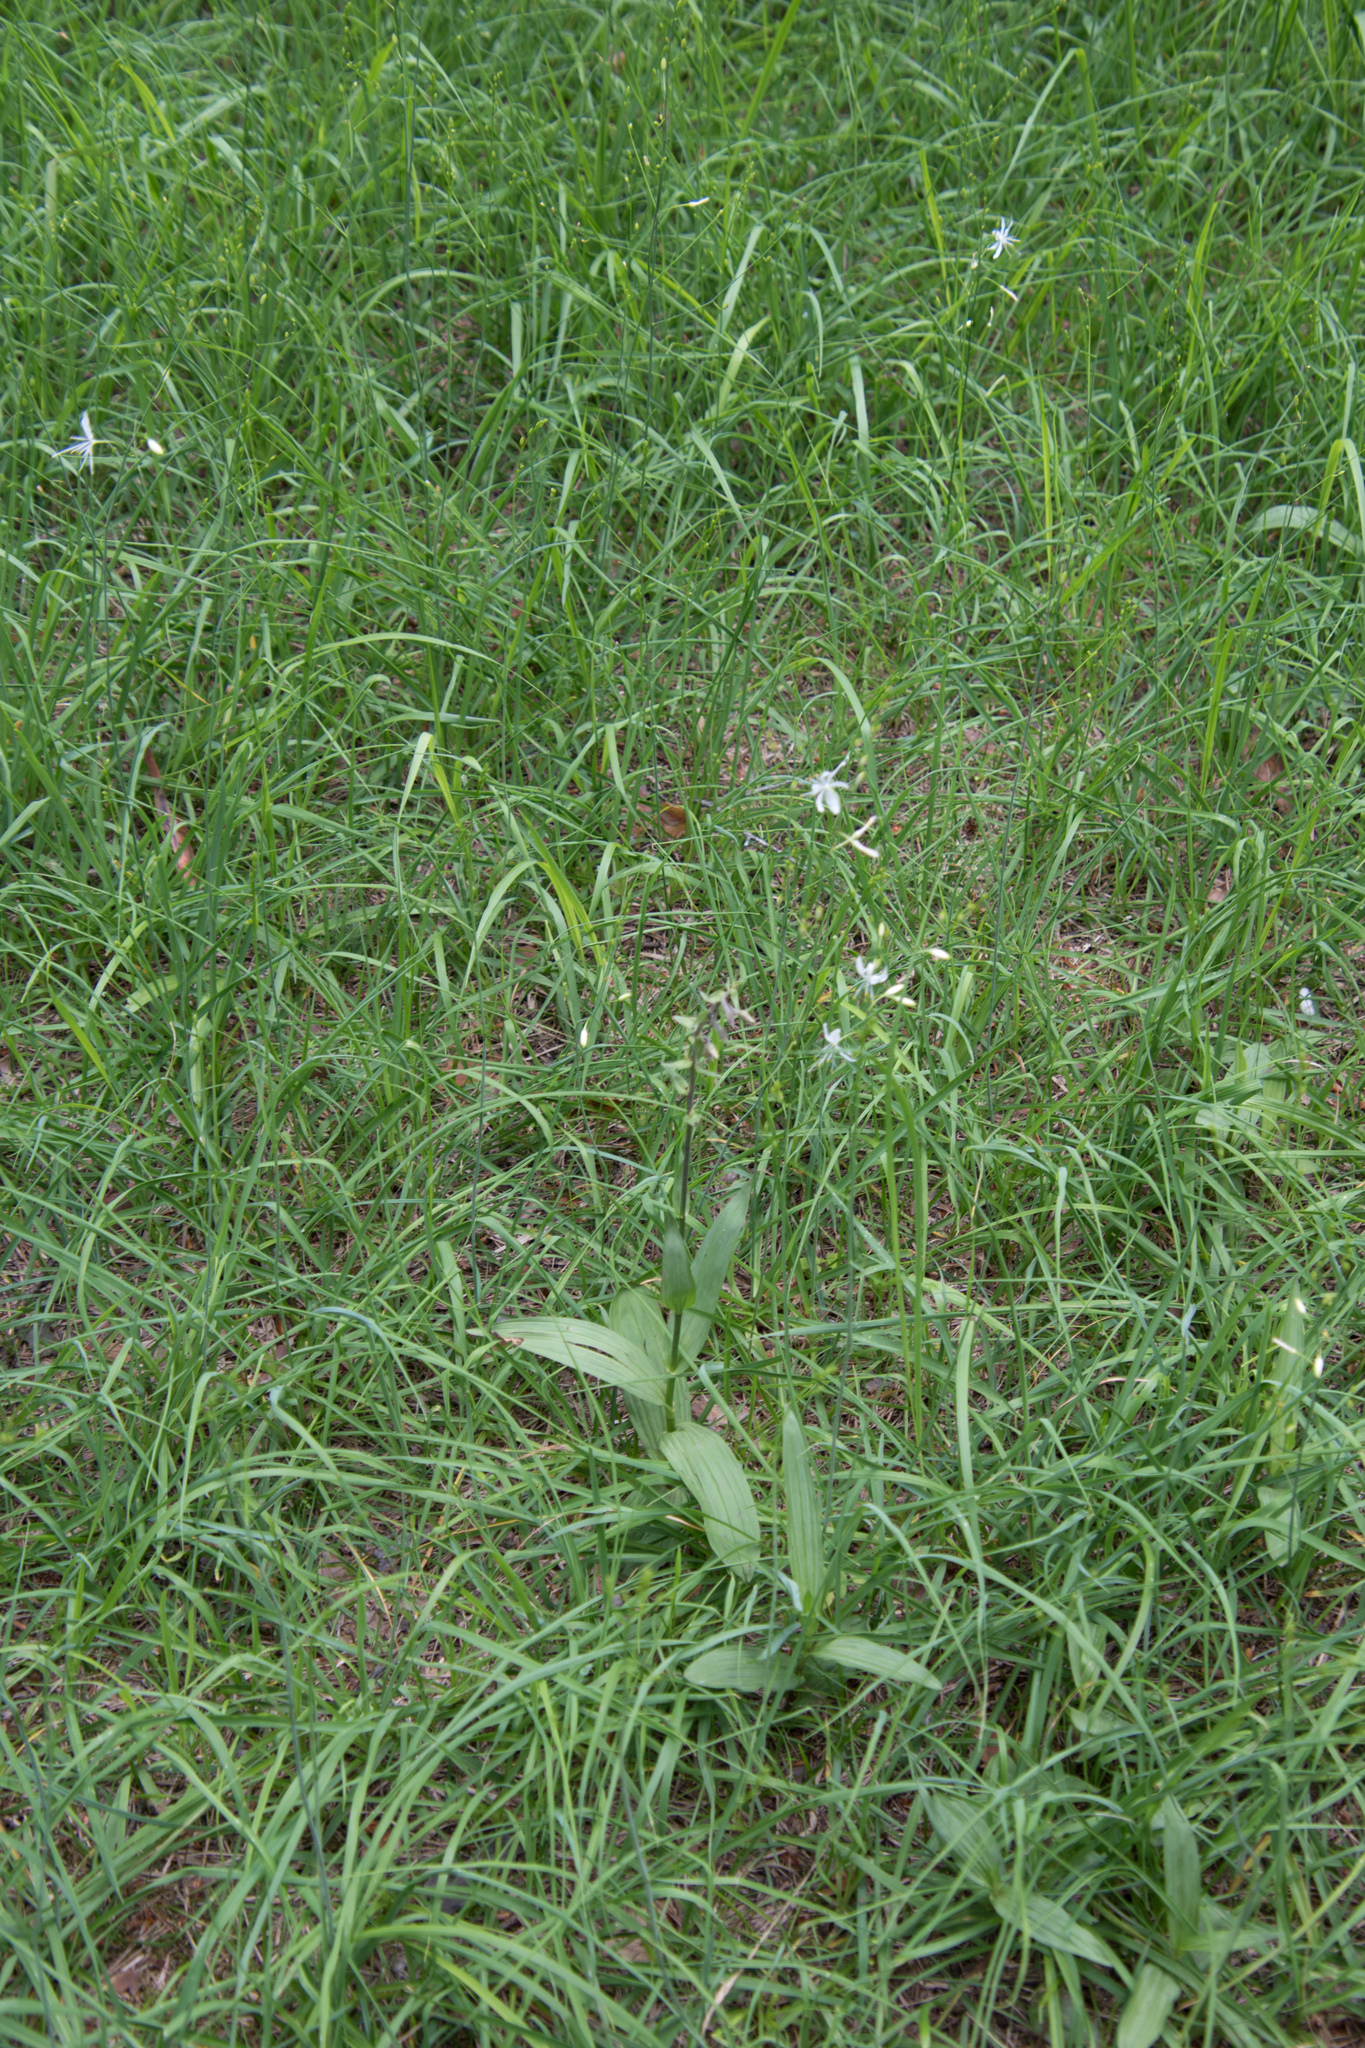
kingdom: Plantae
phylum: Tracheophyta
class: Liliopsida
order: Asparagales
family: Orchidaceae
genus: Epipactis
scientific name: Epipactis palustris
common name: Marsh helleborine
